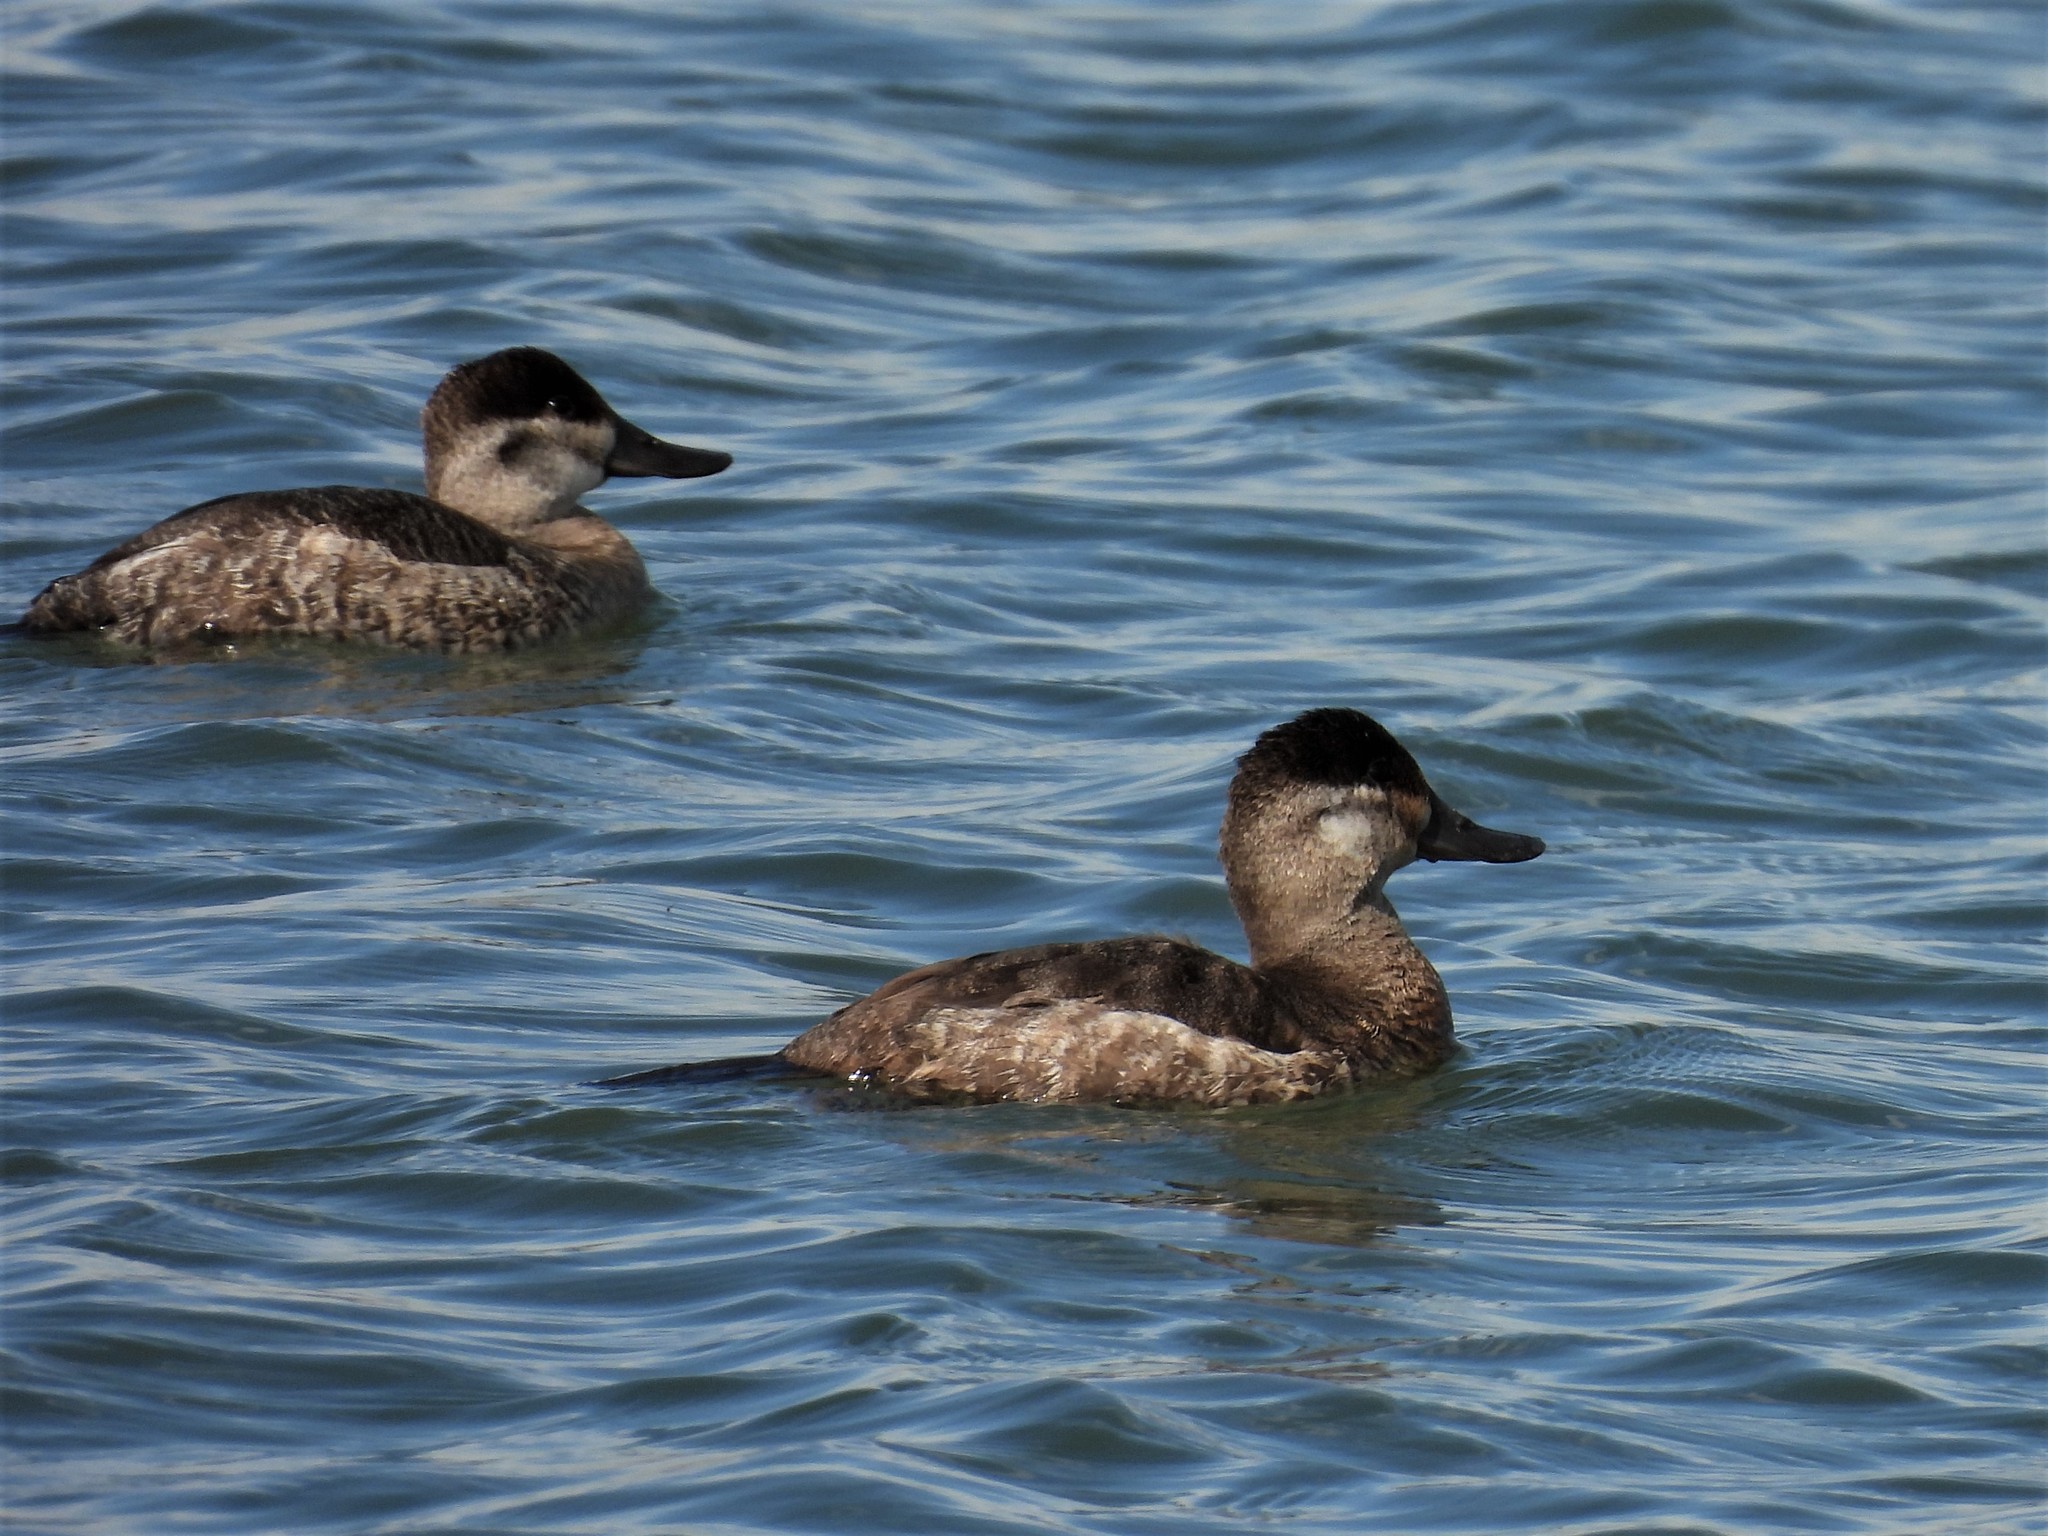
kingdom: Animalia
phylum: Chordata
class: Aves
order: Anseriformes
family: Anatidae
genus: Oxyura
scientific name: Oxyura jamaicensis
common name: Ruddy duck
